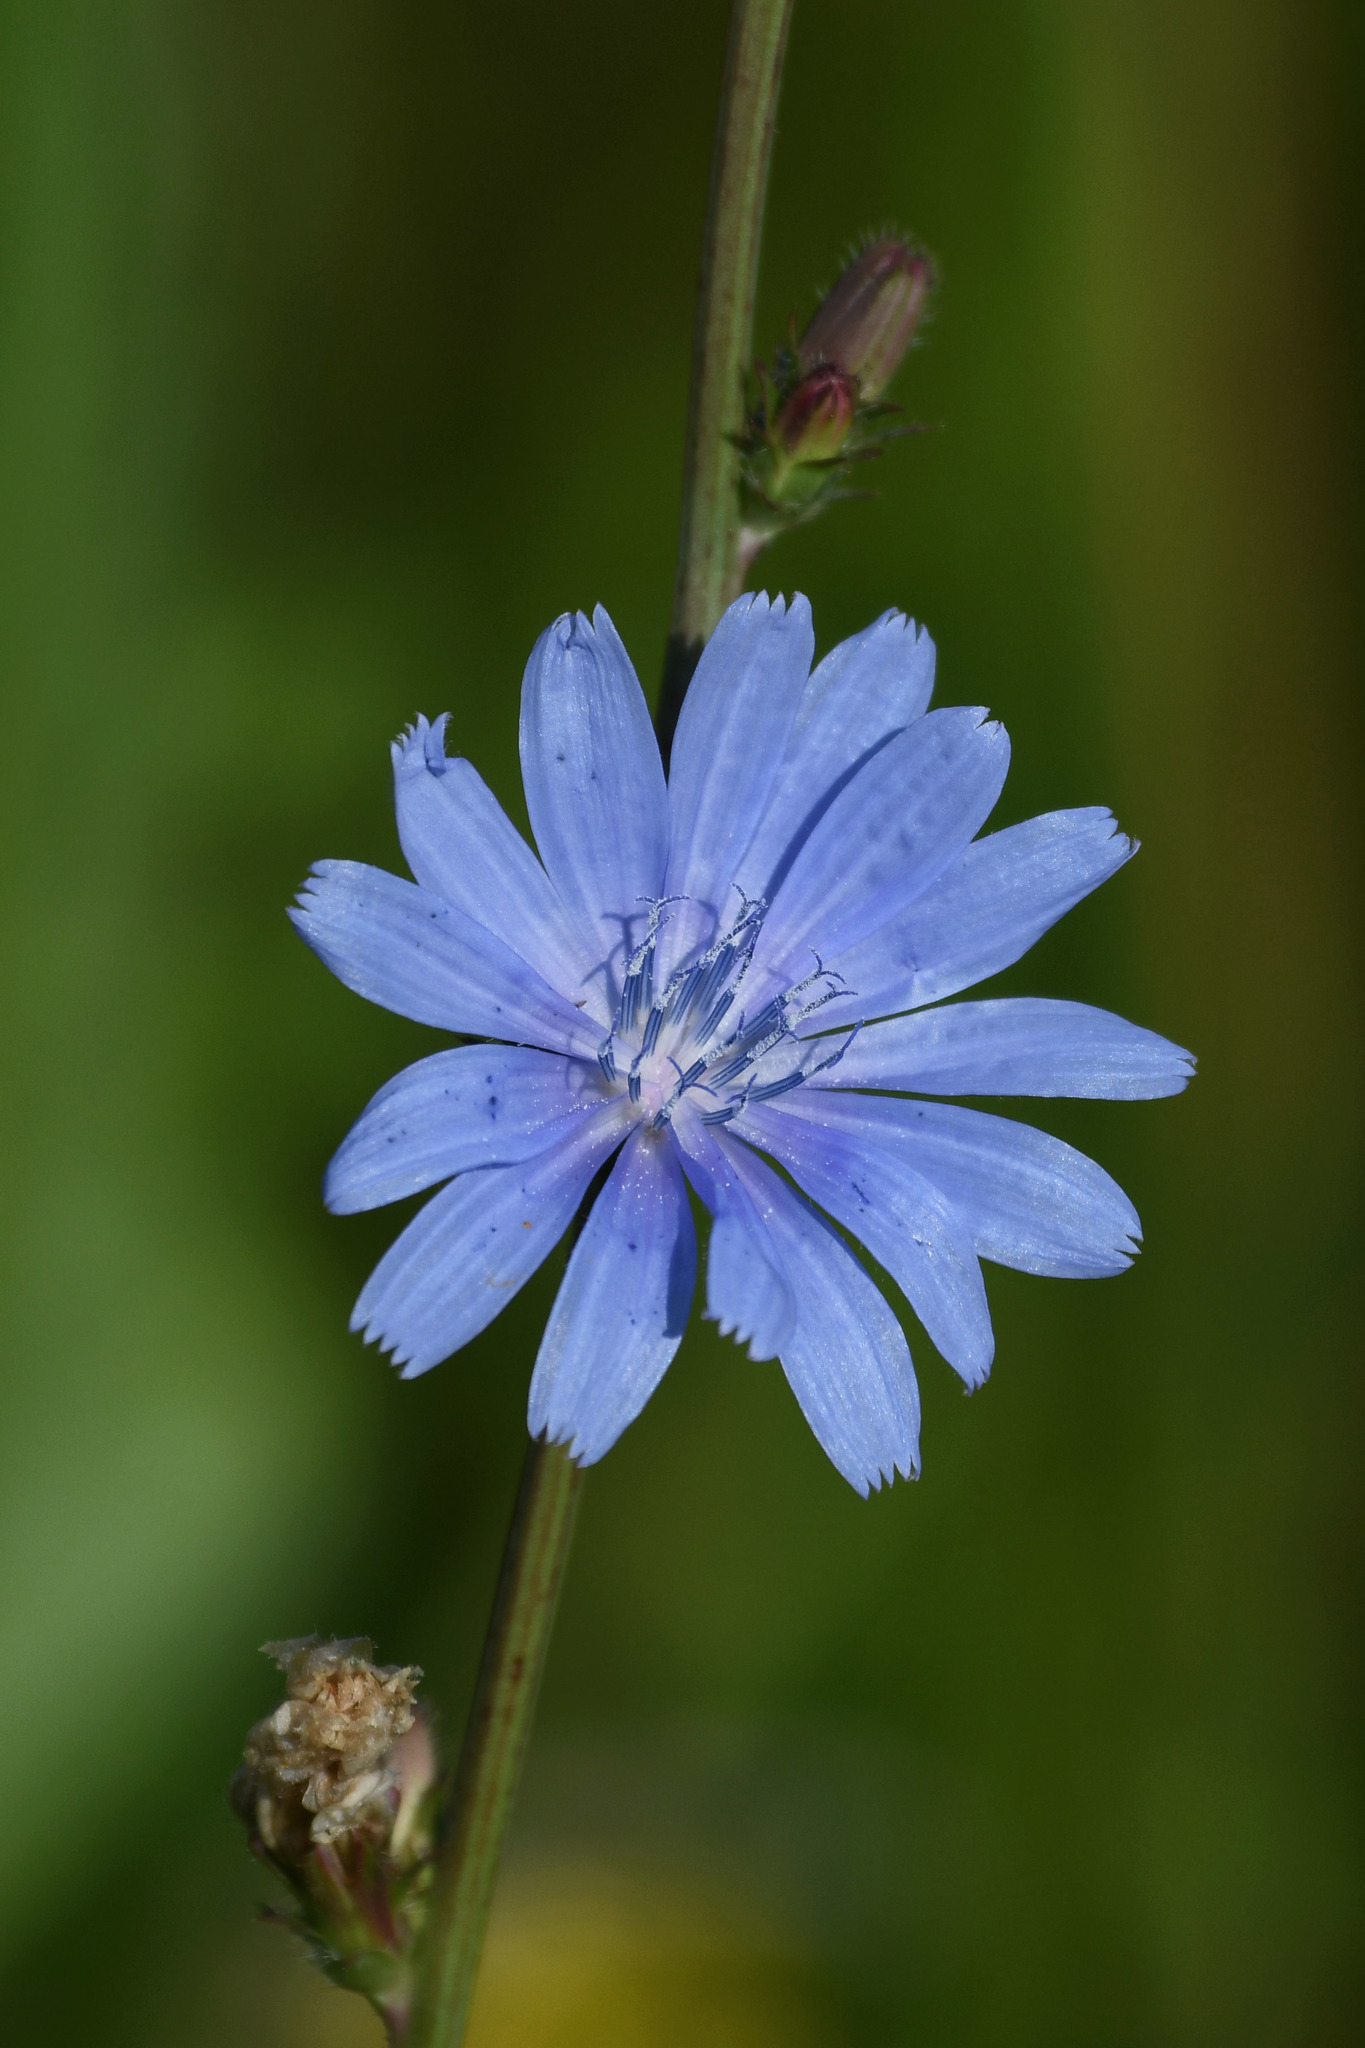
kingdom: Plantae
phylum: Tracheophyta
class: Magnoliopsida
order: Asterales
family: Asteraceae
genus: Cichorium
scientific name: Cichorium intybus
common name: Chicory
